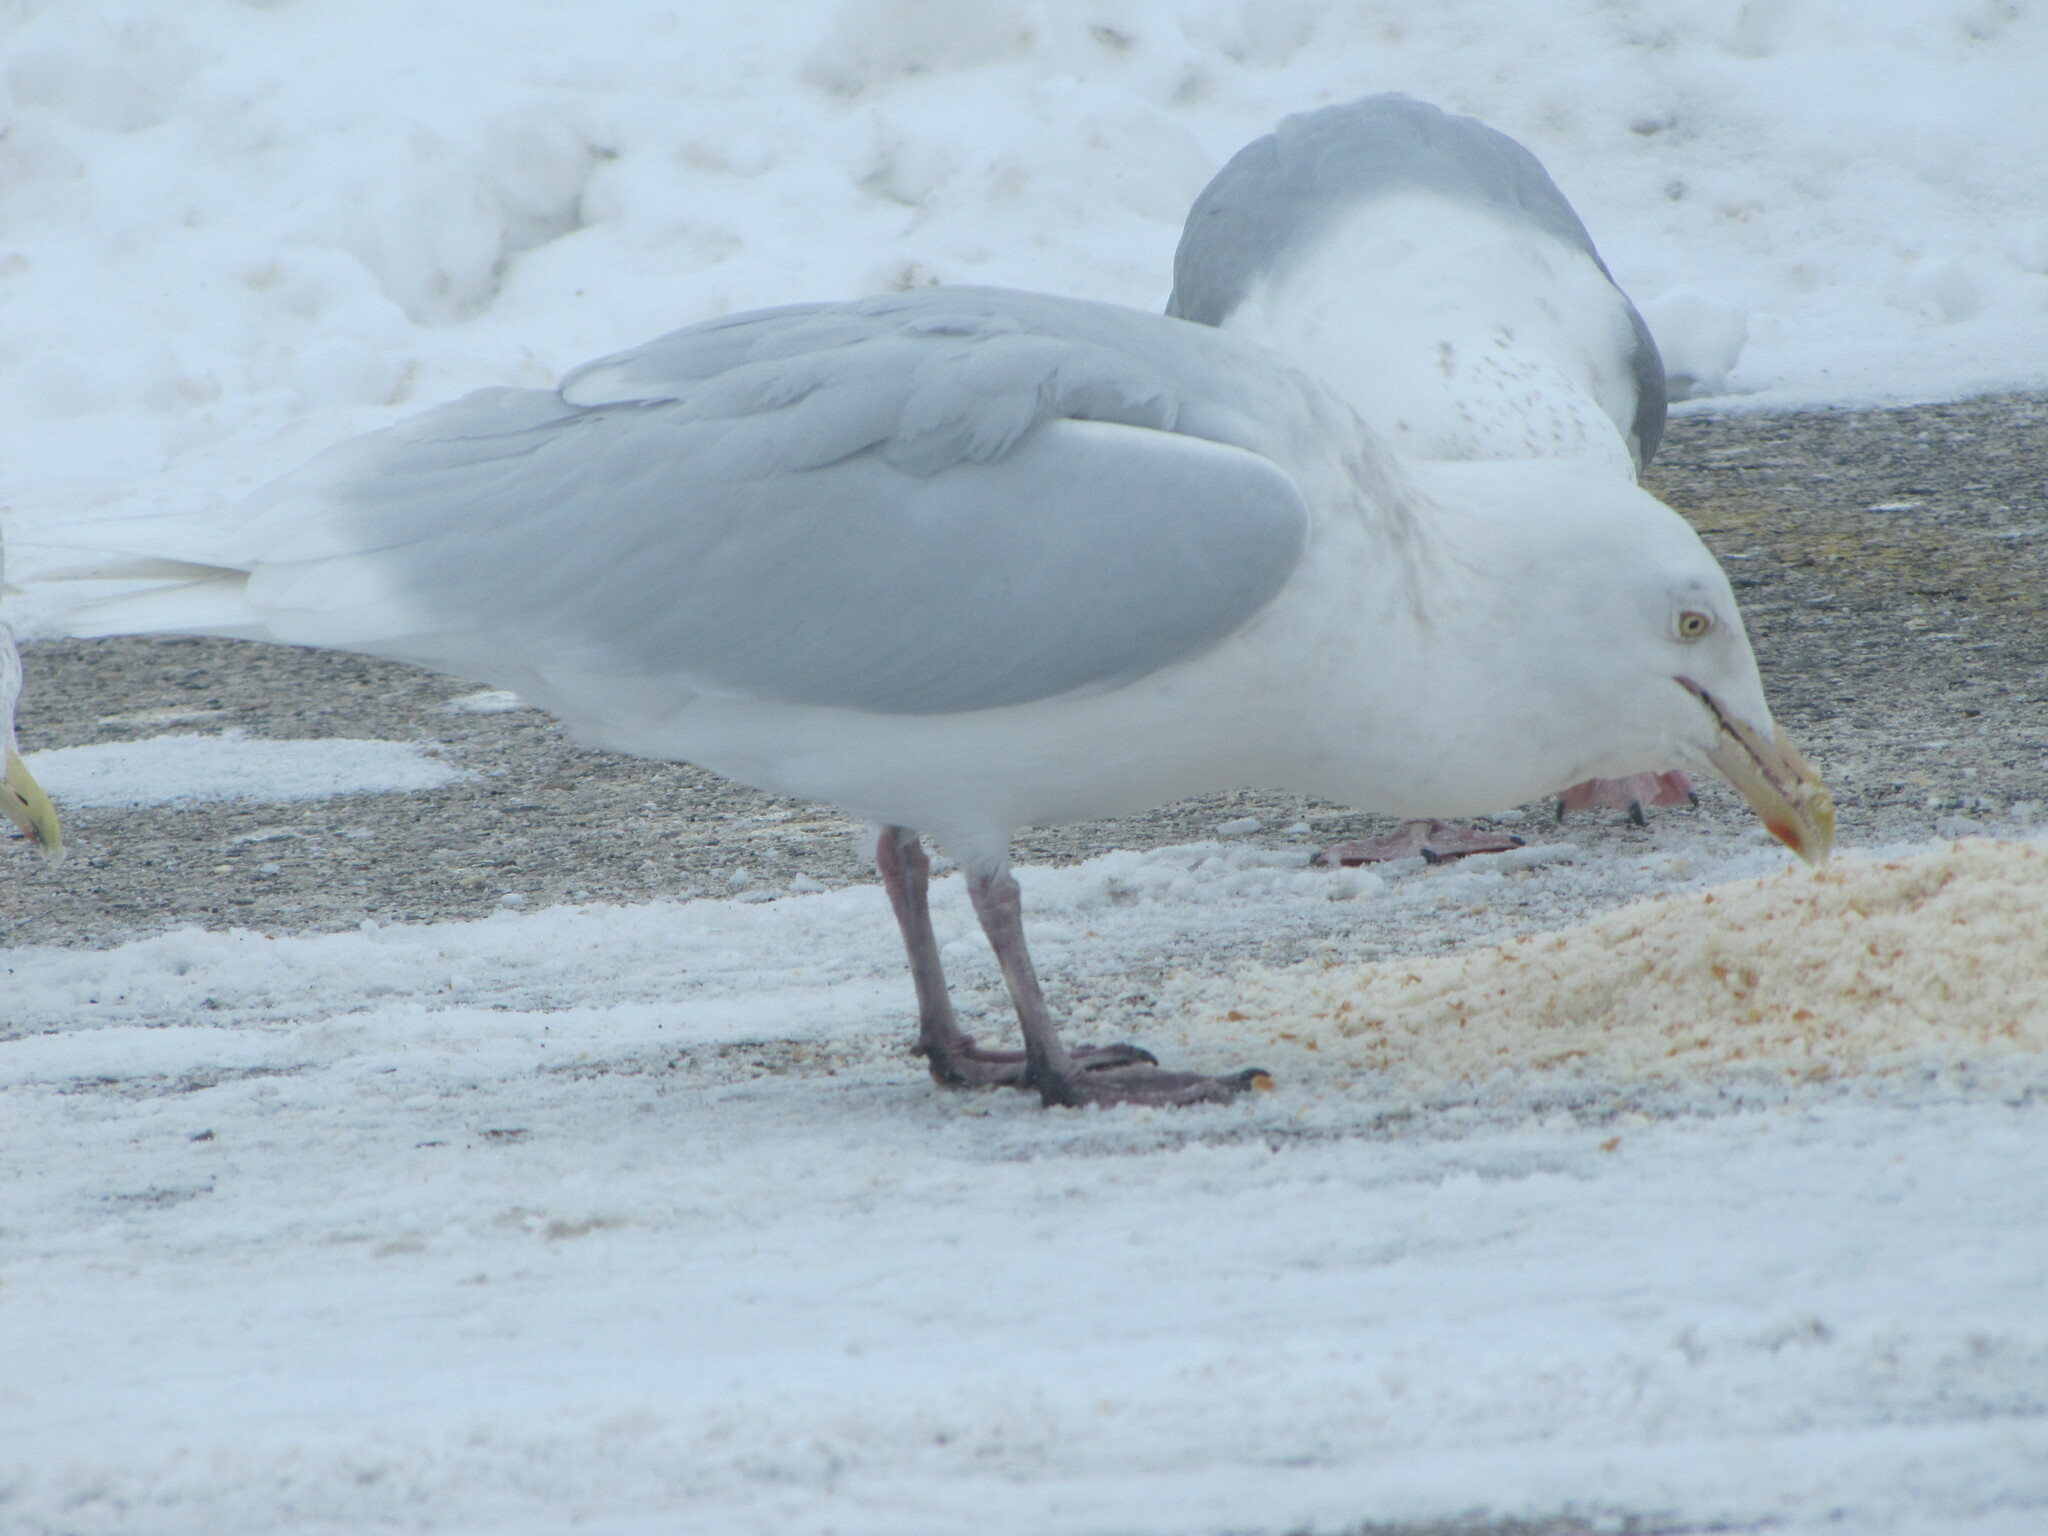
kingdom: Animalia
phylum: Chordata
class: Aves
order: Charadriiformes
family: Laridae
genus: Larus
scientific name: Larus hyperboreus
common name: Glaucous gull
